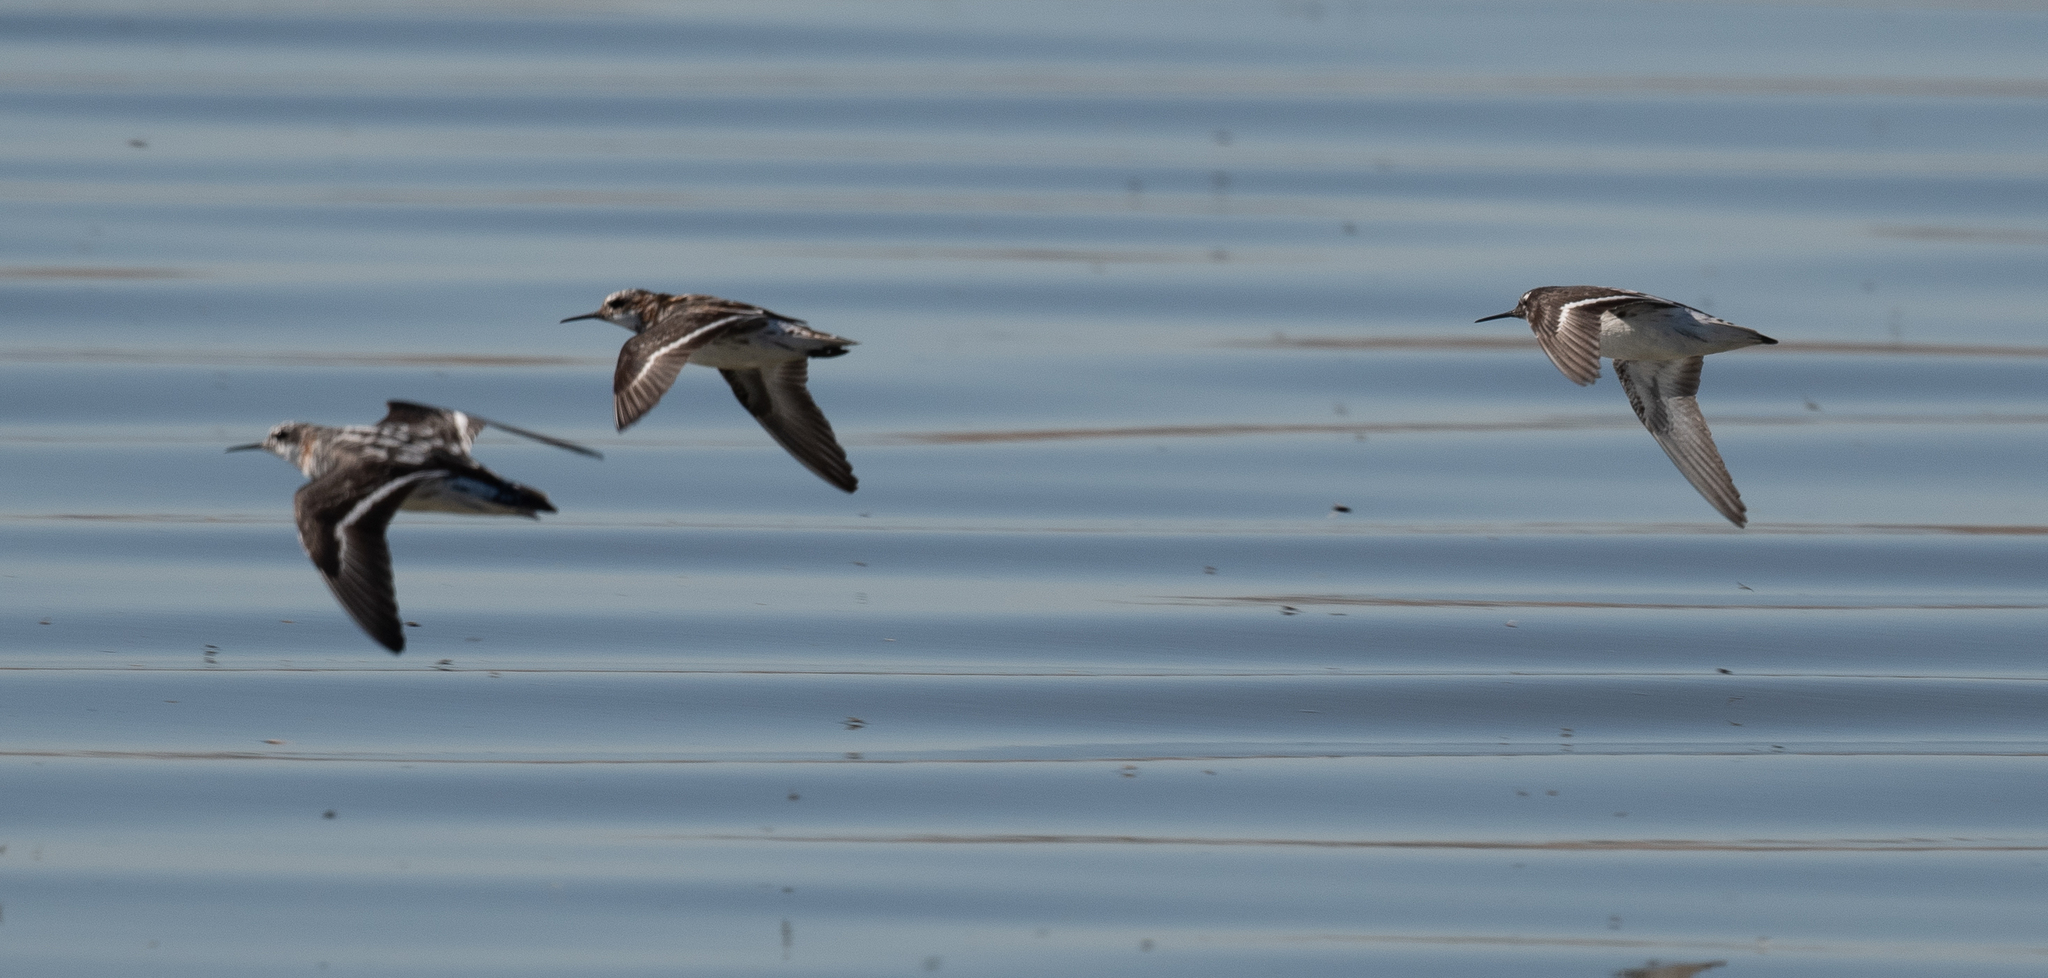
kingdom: Animalia
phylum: Chordata
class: Aves
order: Charadriiformes
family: Scolopacidae
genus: Phalaropus
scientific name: Phalaropus lobatus
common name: Red-necked phalarope
